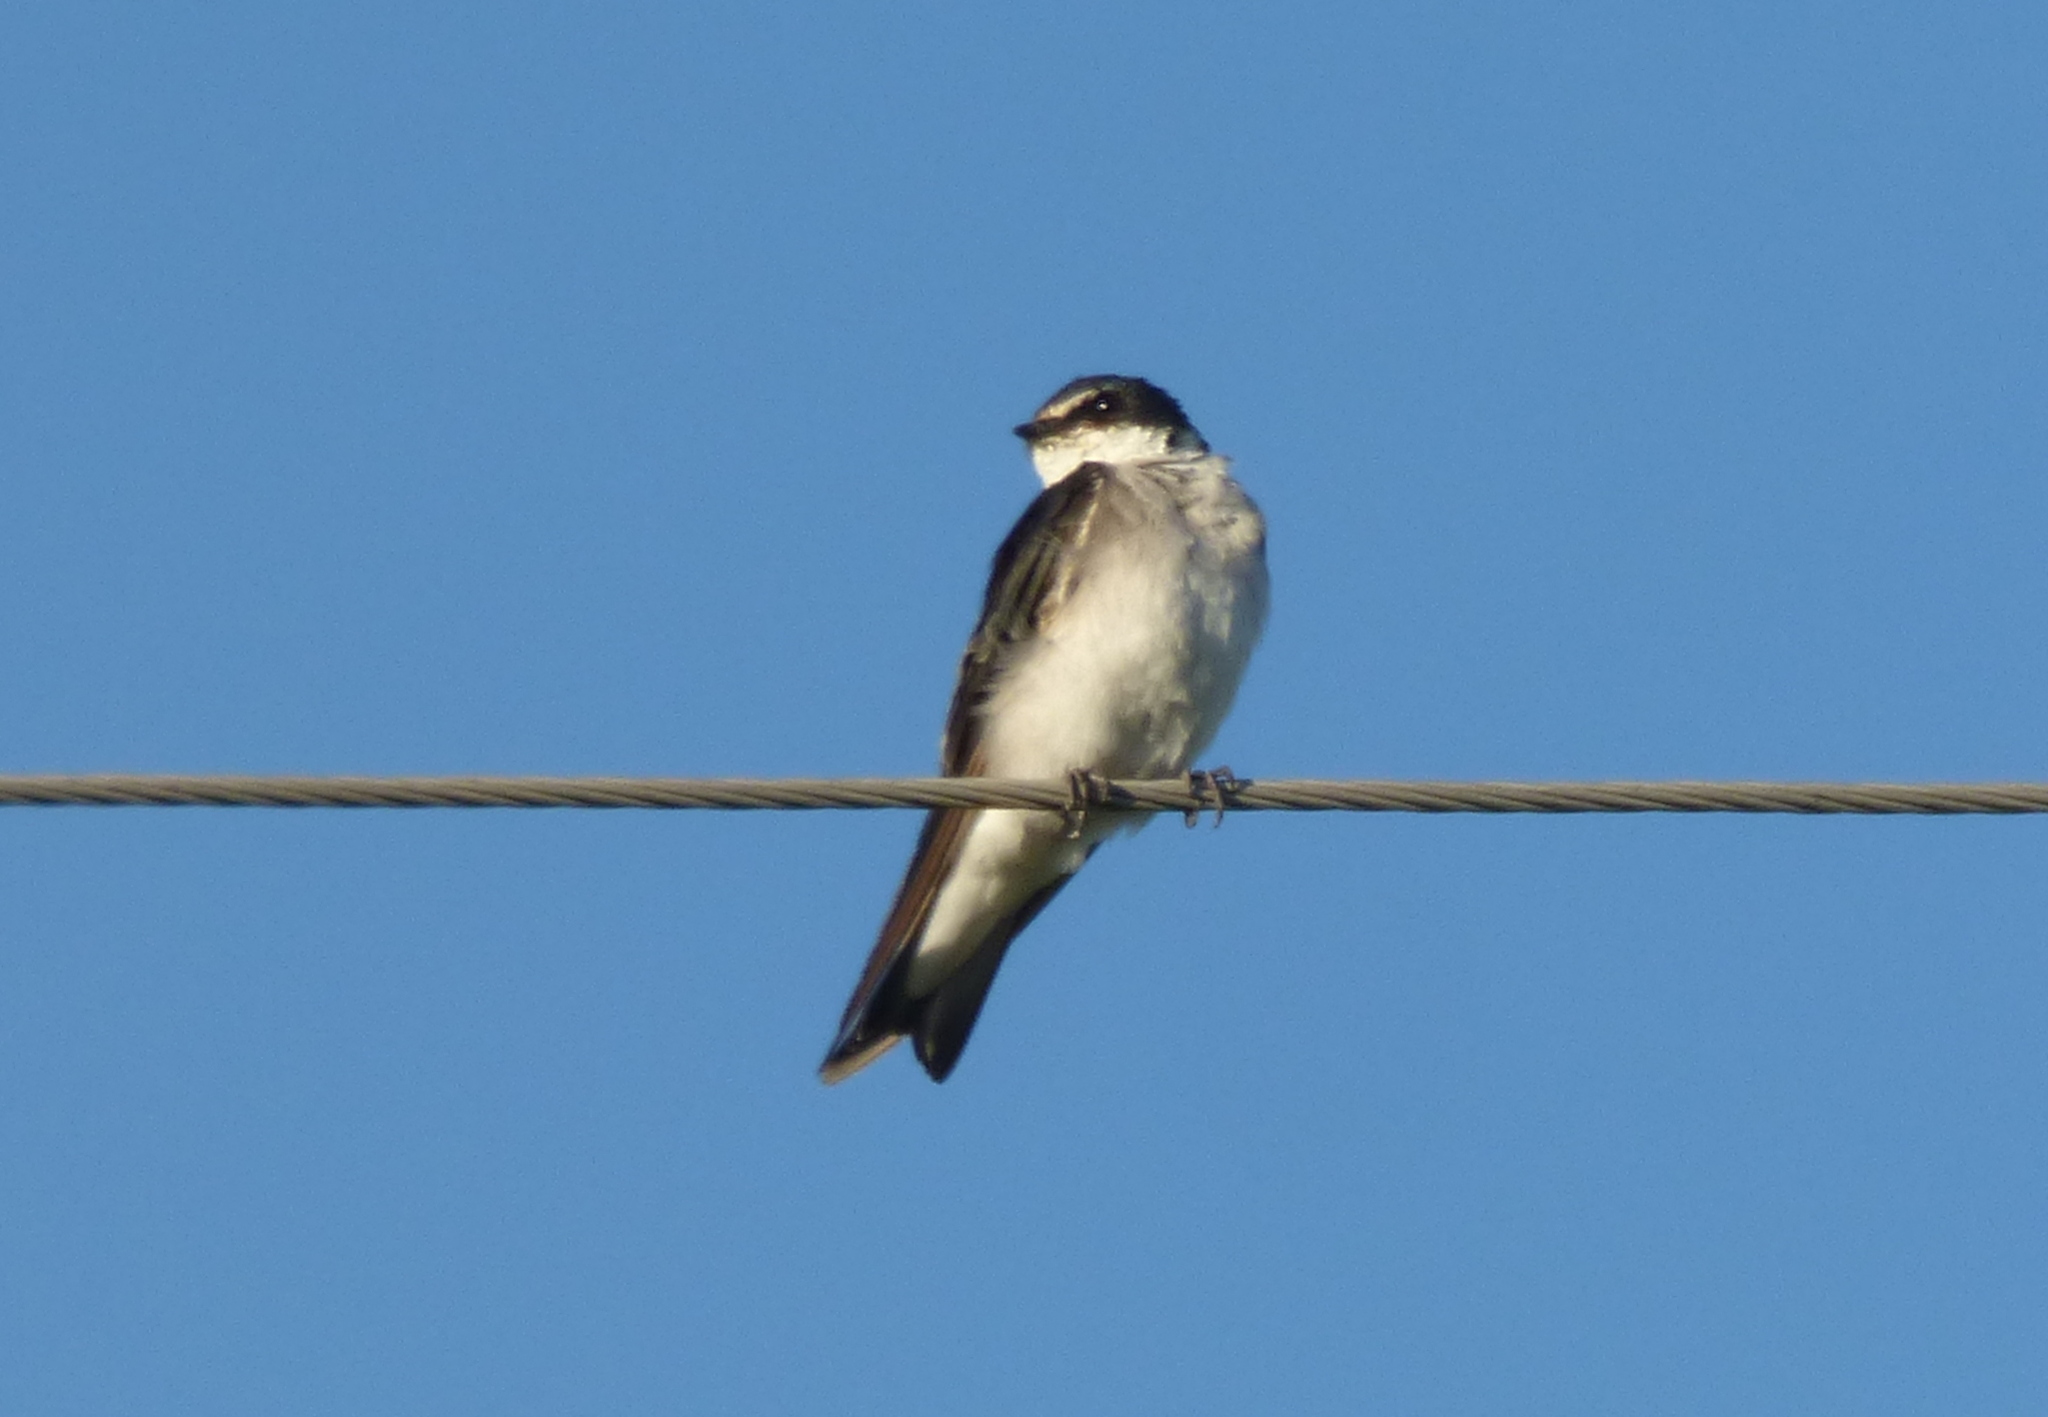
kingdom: Animalia
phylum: Chordata
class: Aves
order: Passeriformes
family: Hirundinidae
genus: Tachycineta
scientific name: Tachycineta leucorrhoa
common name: White-rumped swallow
